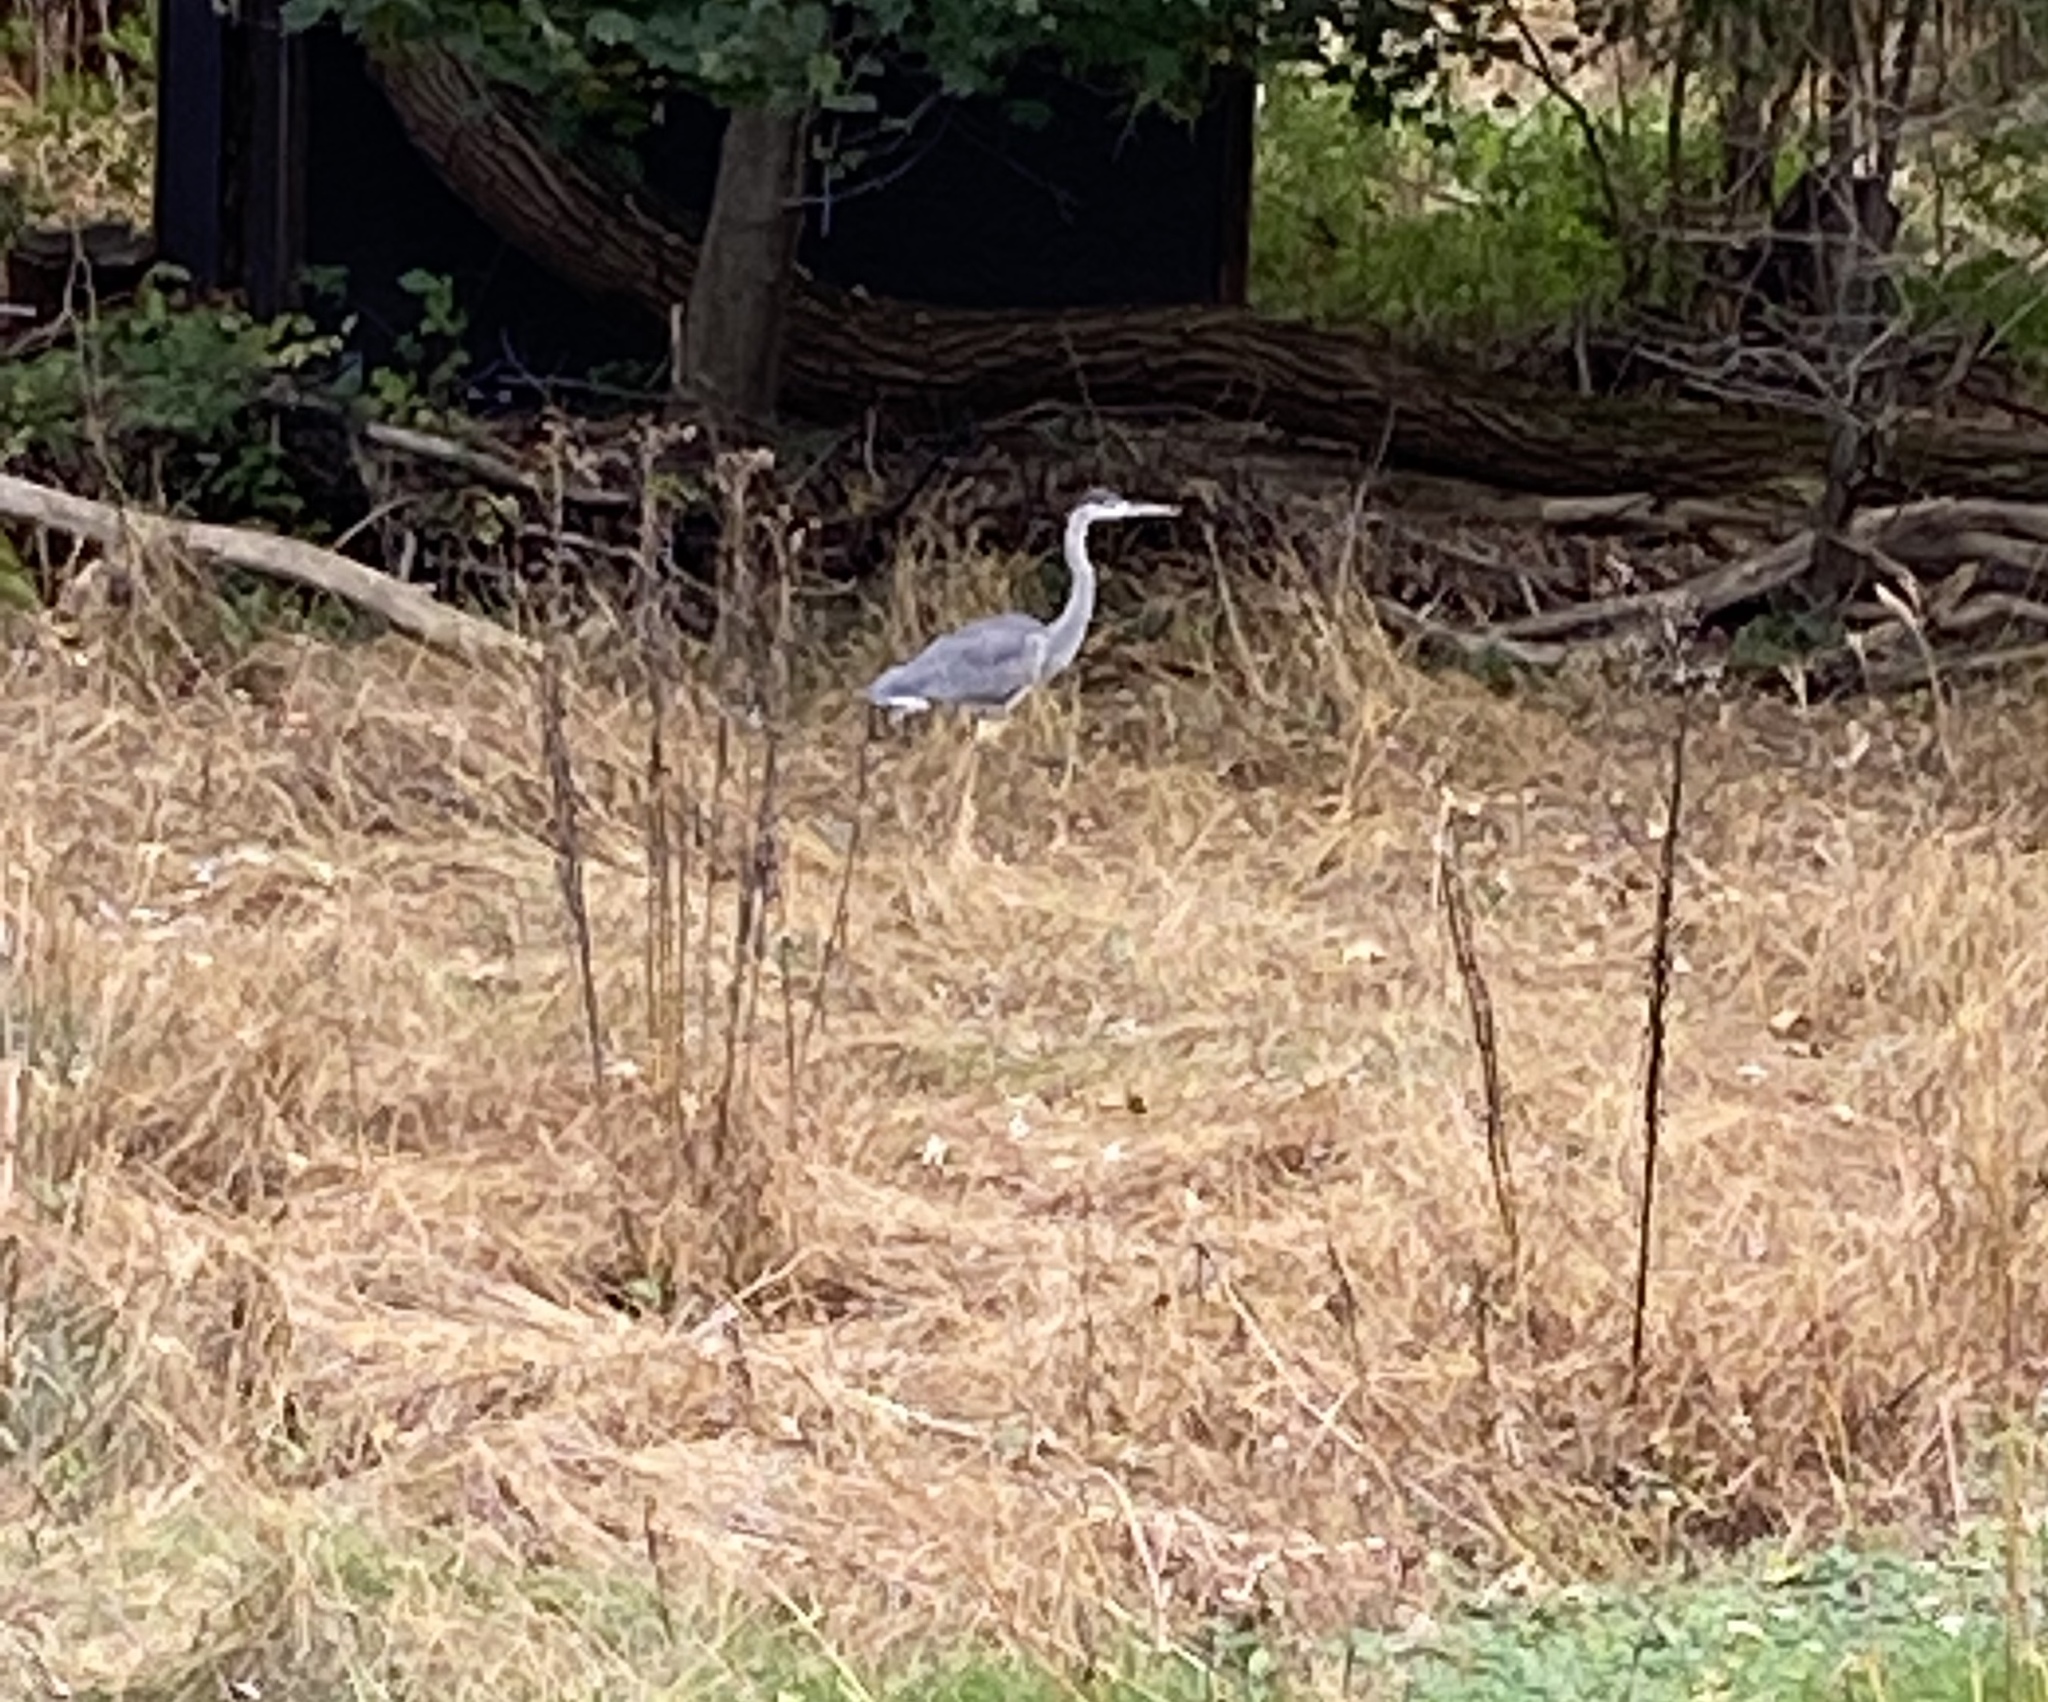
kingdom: Animalia
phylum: Chordata
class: Aves
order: Pelecaniformes
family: Ardeidae
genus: Ardea
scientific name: Ardea herodias
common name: Great blue heron
